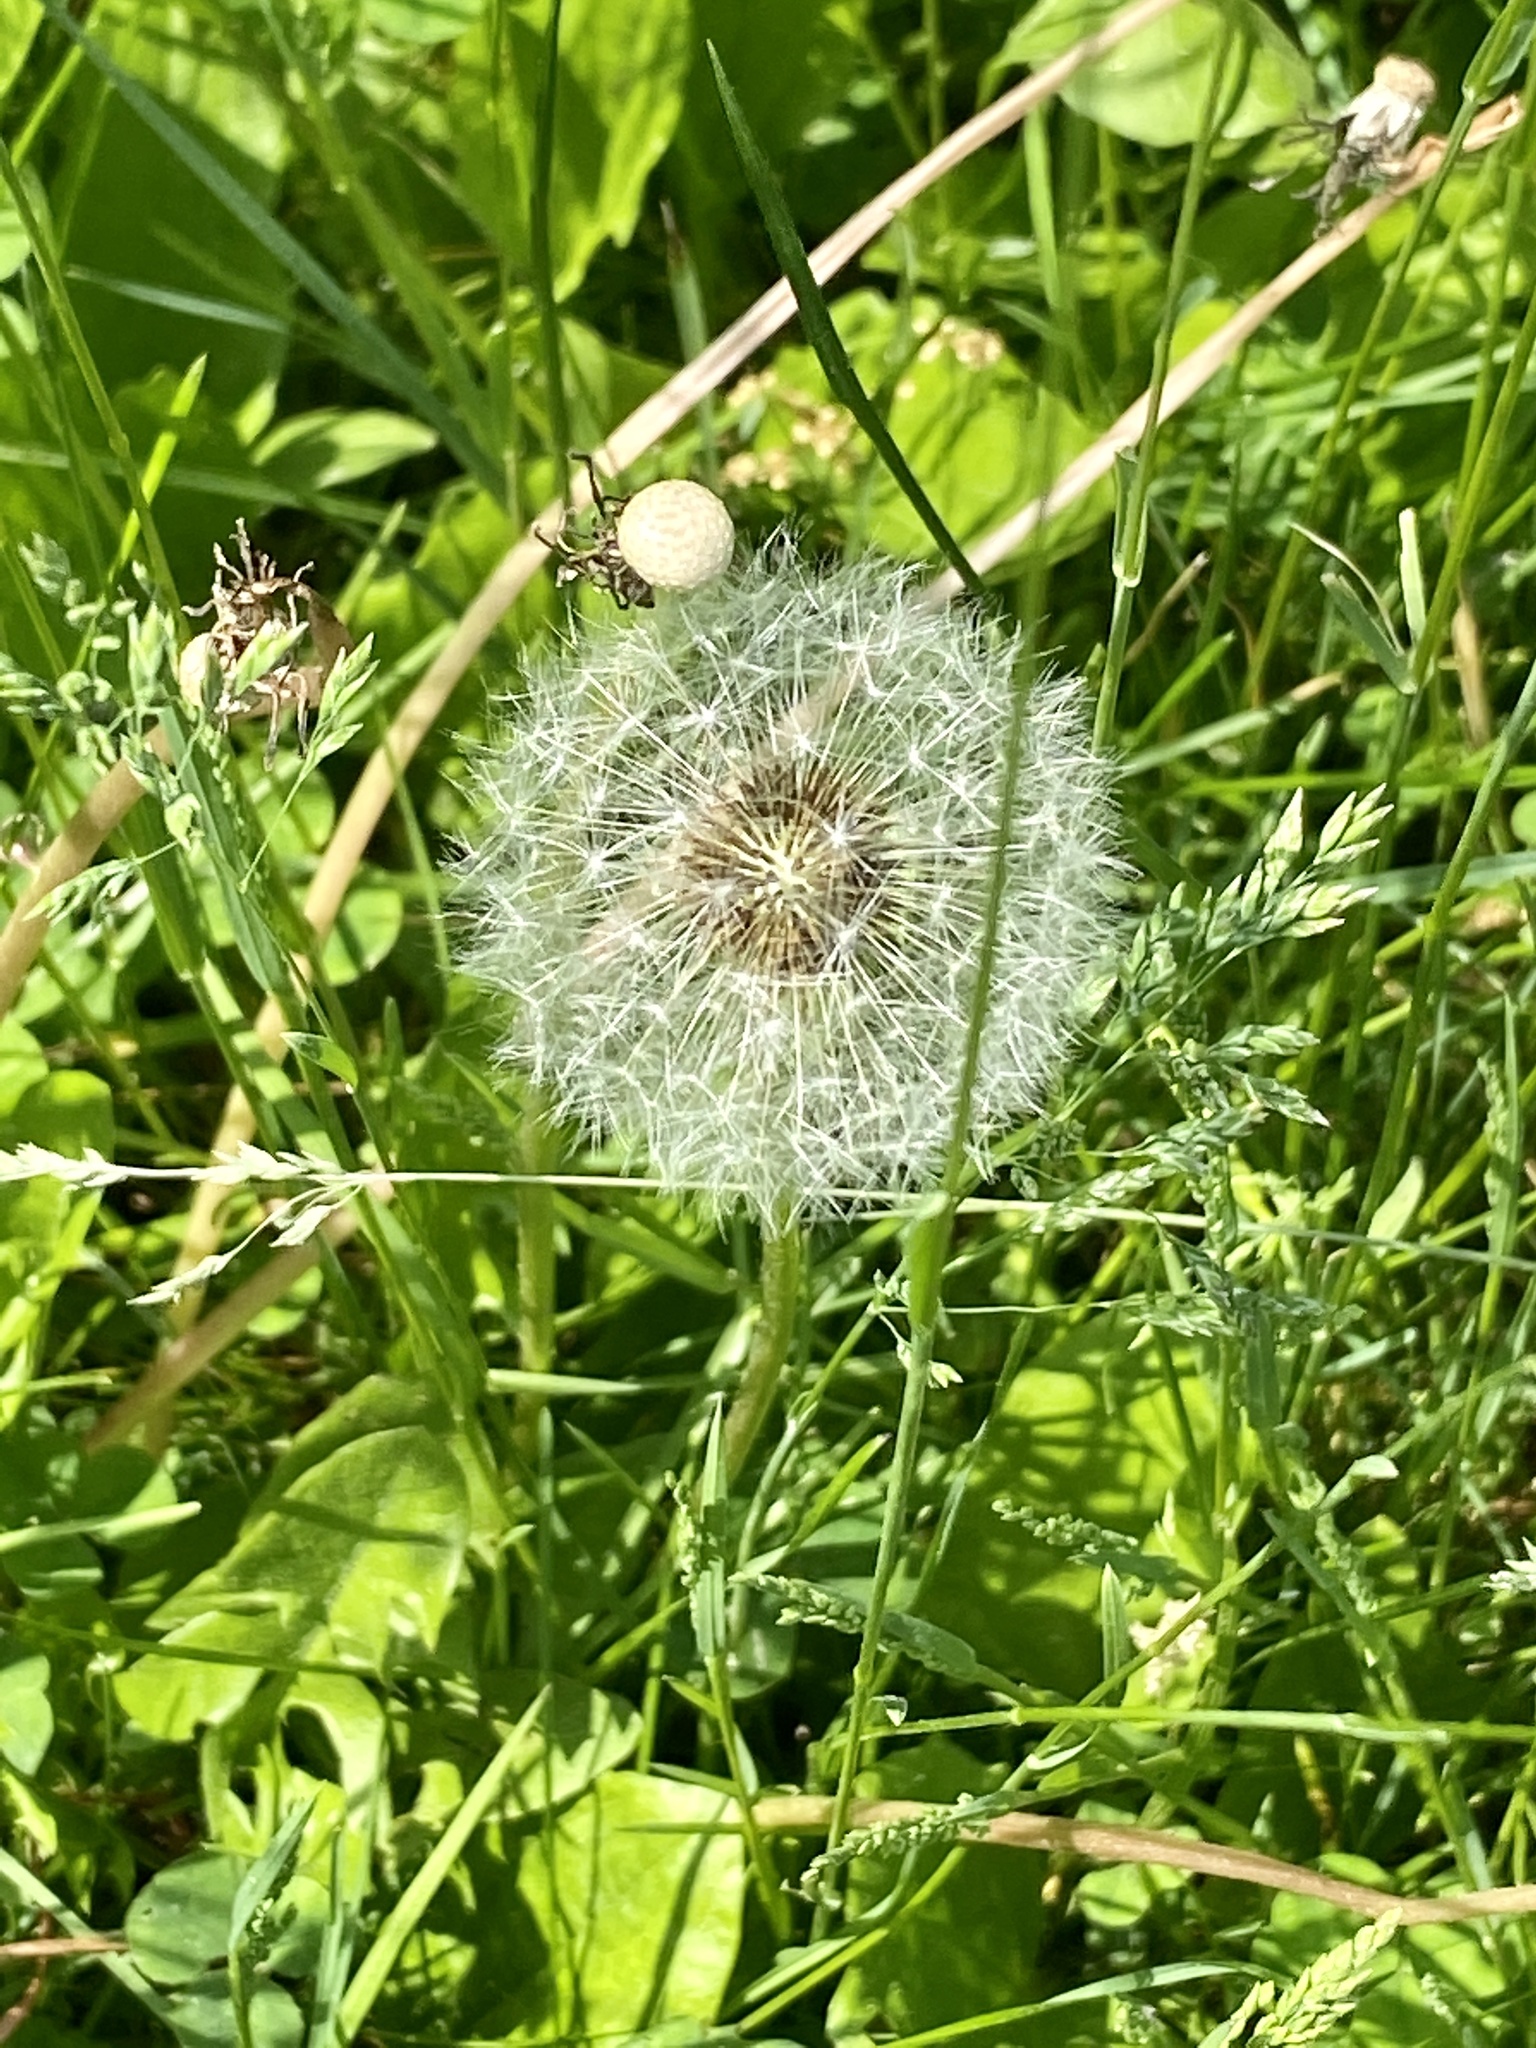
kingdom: Plantae
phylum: Tracheophyta
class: Magnoliopsida
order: Asterales
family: Asteraceae
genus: Taraxacum
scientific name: Taraxacum officinale
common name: Common dandelion
